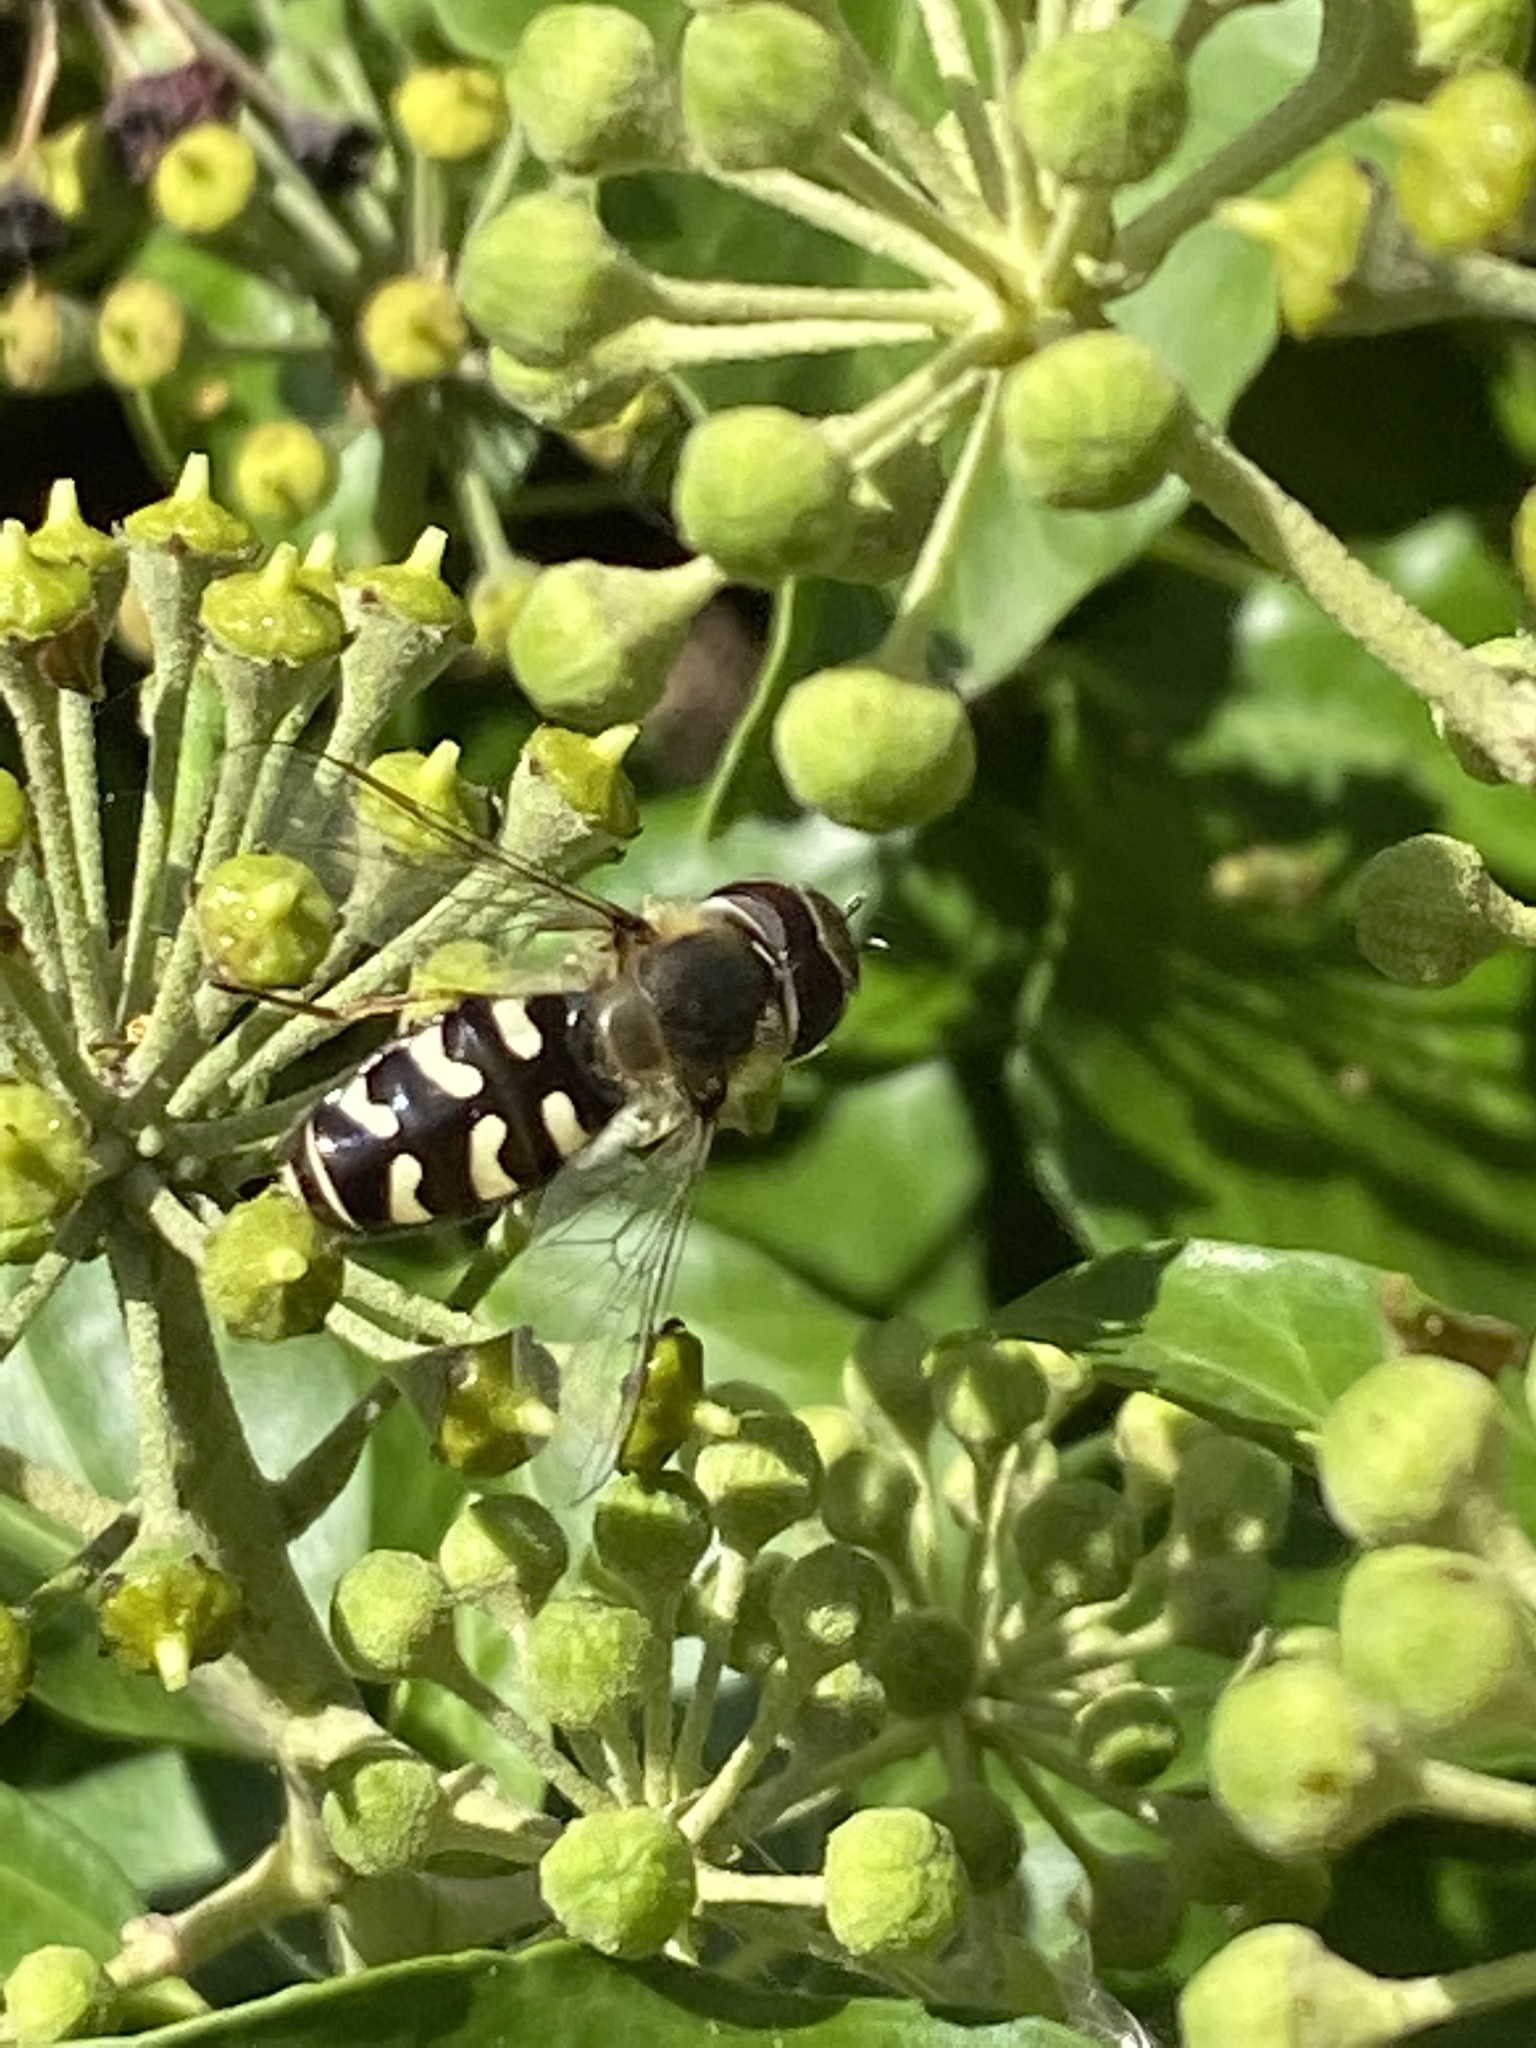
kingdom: Animalia
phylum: Arthropoda
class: Insecta
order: Diptera
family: Syrphidae
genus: Scaeva
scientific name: Scaeva pyrastri
